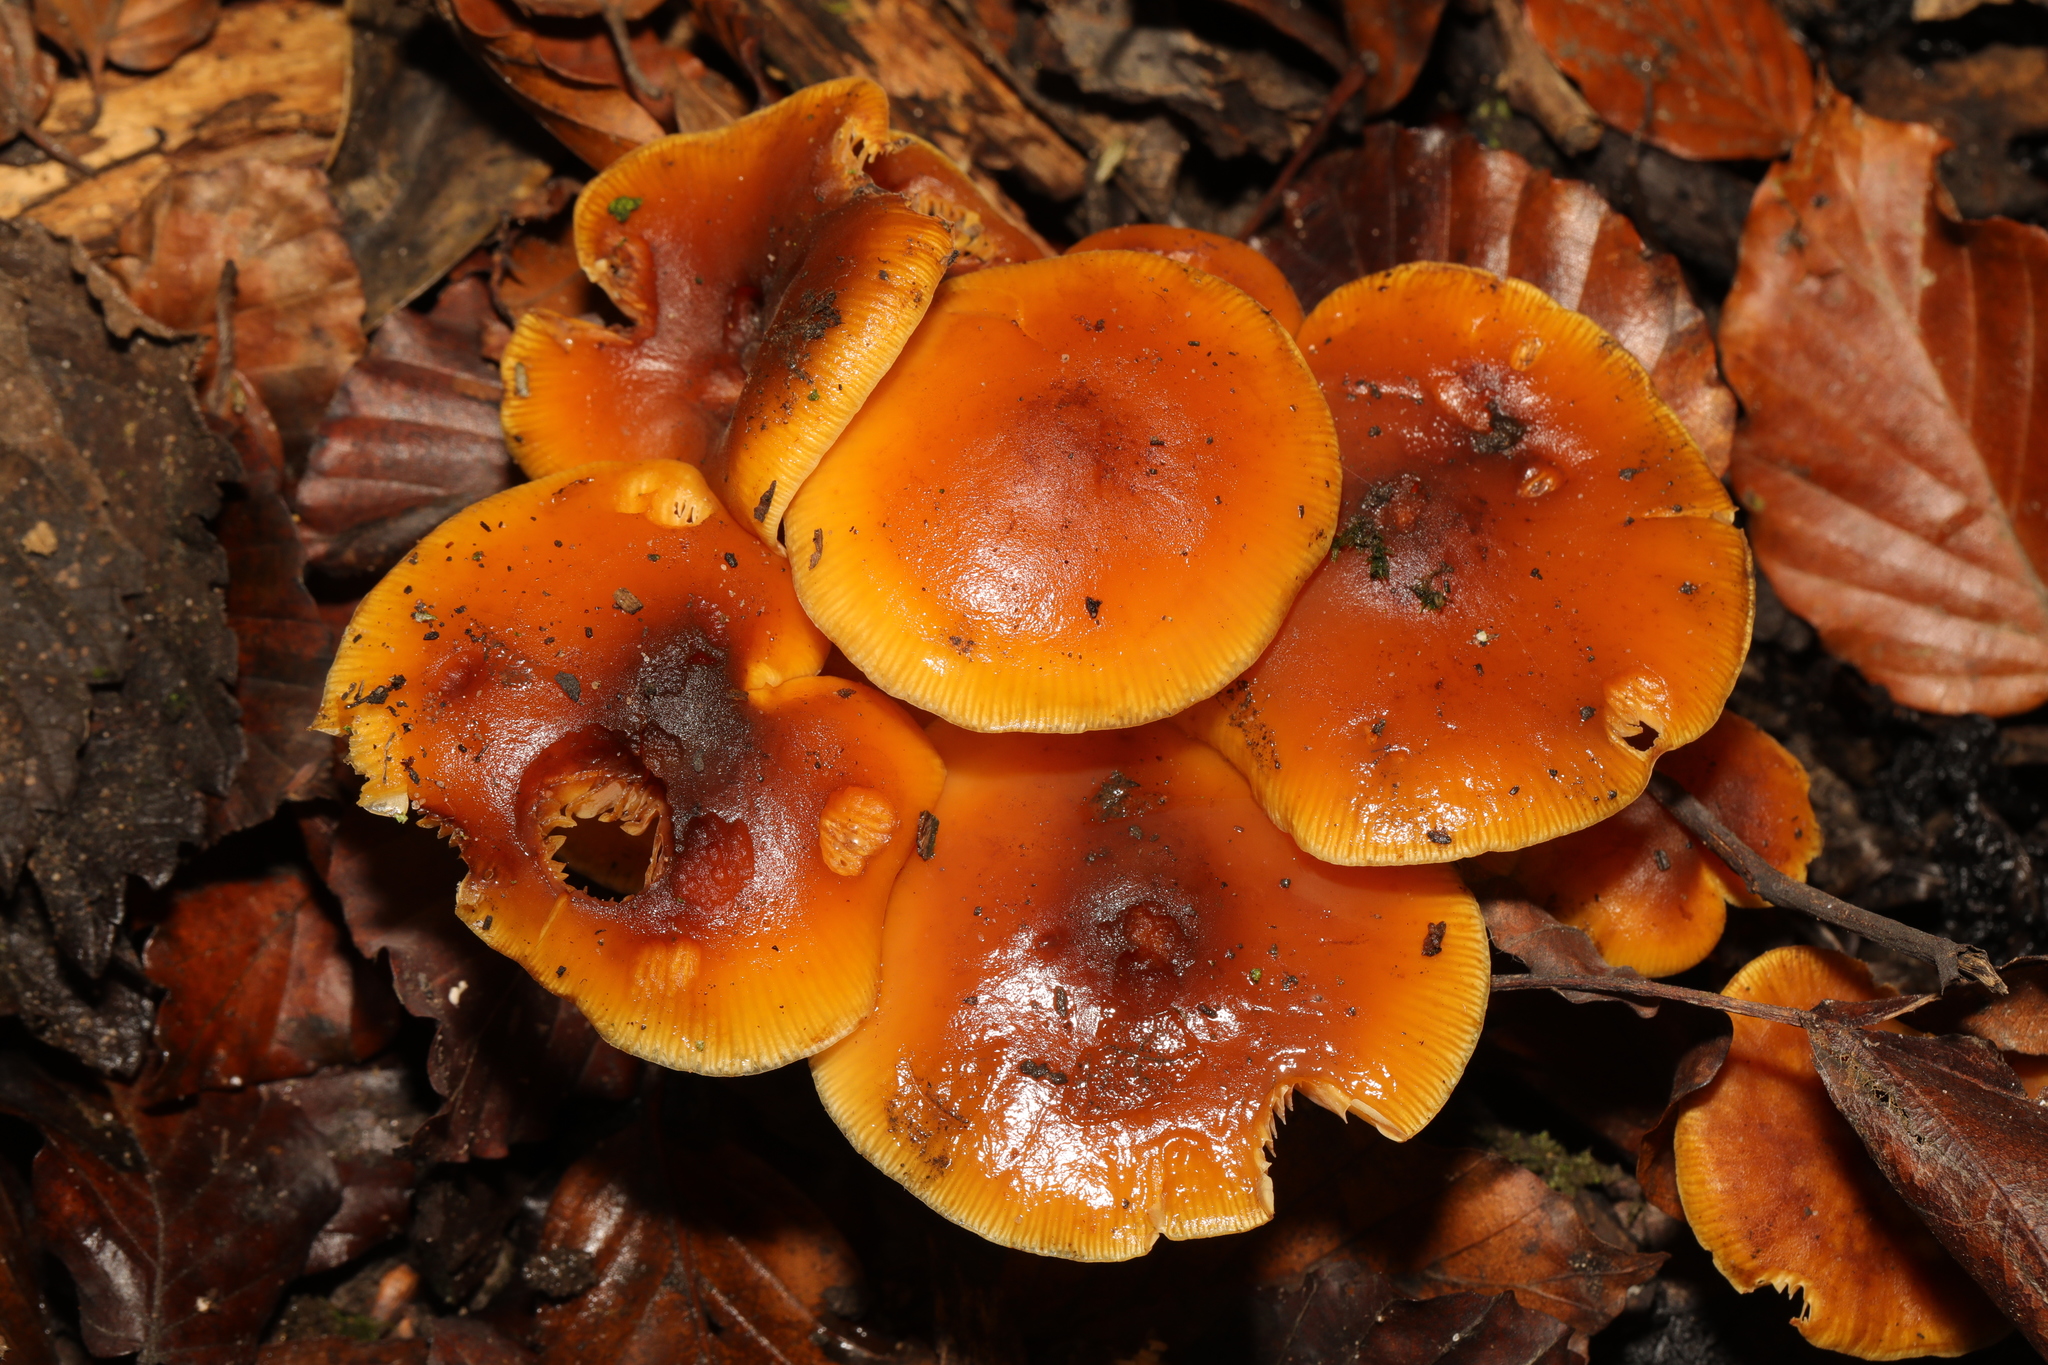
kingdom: Fungi
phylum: Basidiomycota
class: Agaricomycetes
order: Agaricales
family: Physalacriaceae
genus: Flammulina
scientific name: Flammulina
